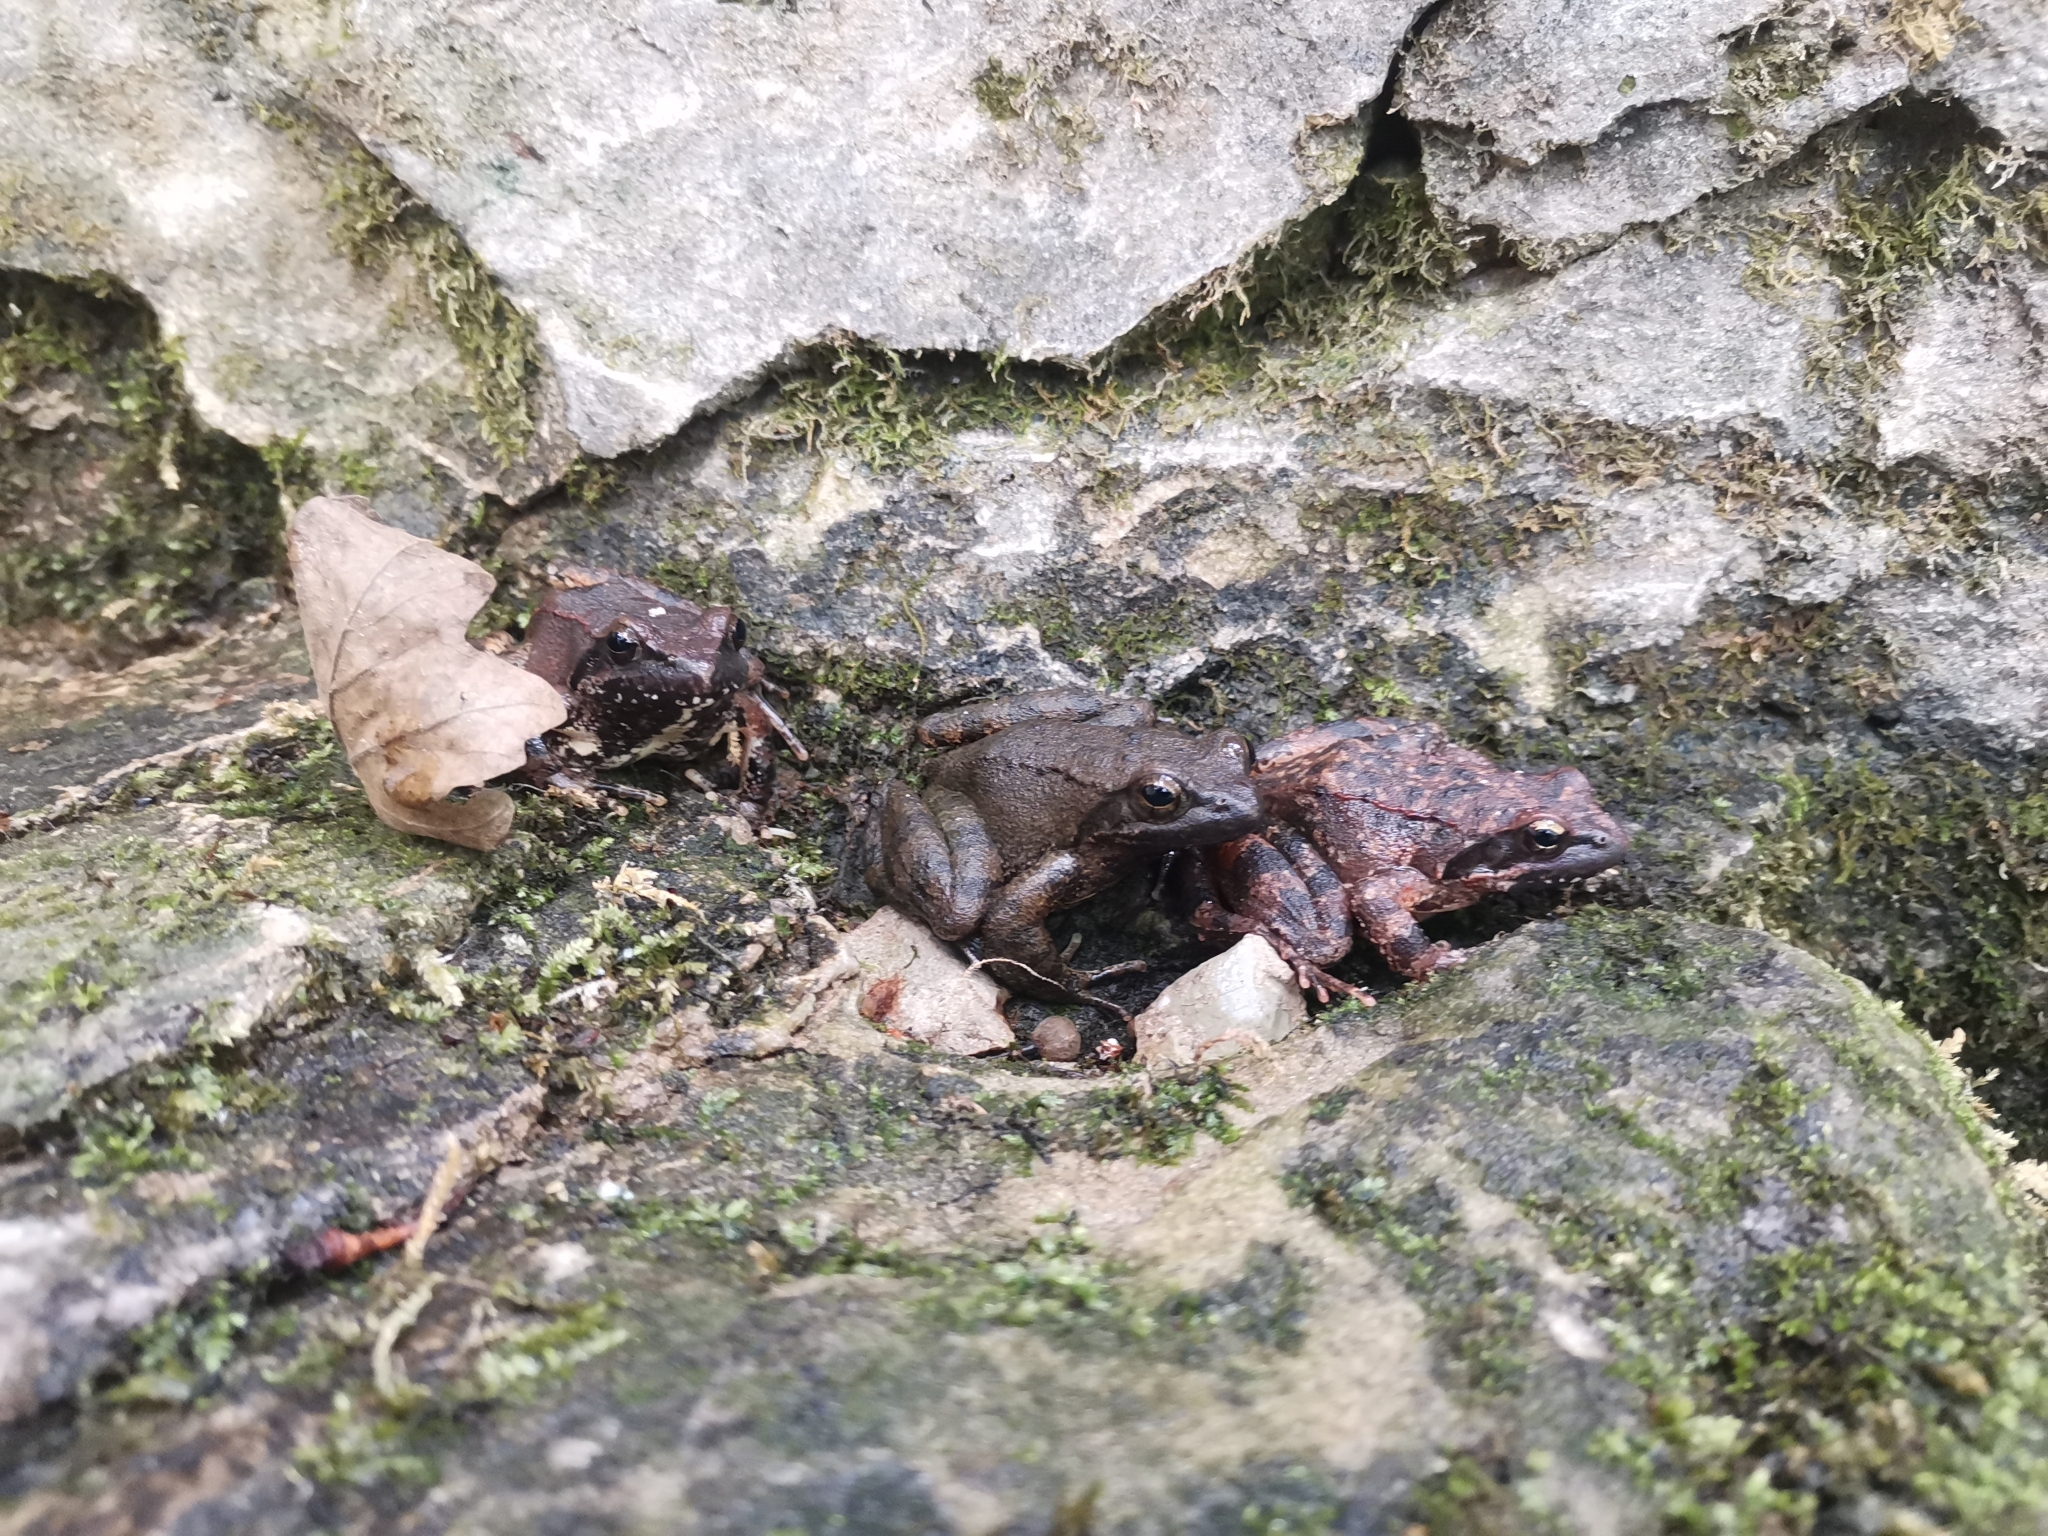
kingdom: Animalia
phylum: Chordata
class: Amphibia
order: Anura
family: Ranidae
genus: Rana
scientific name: Rana italica
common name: Italian stream frog
